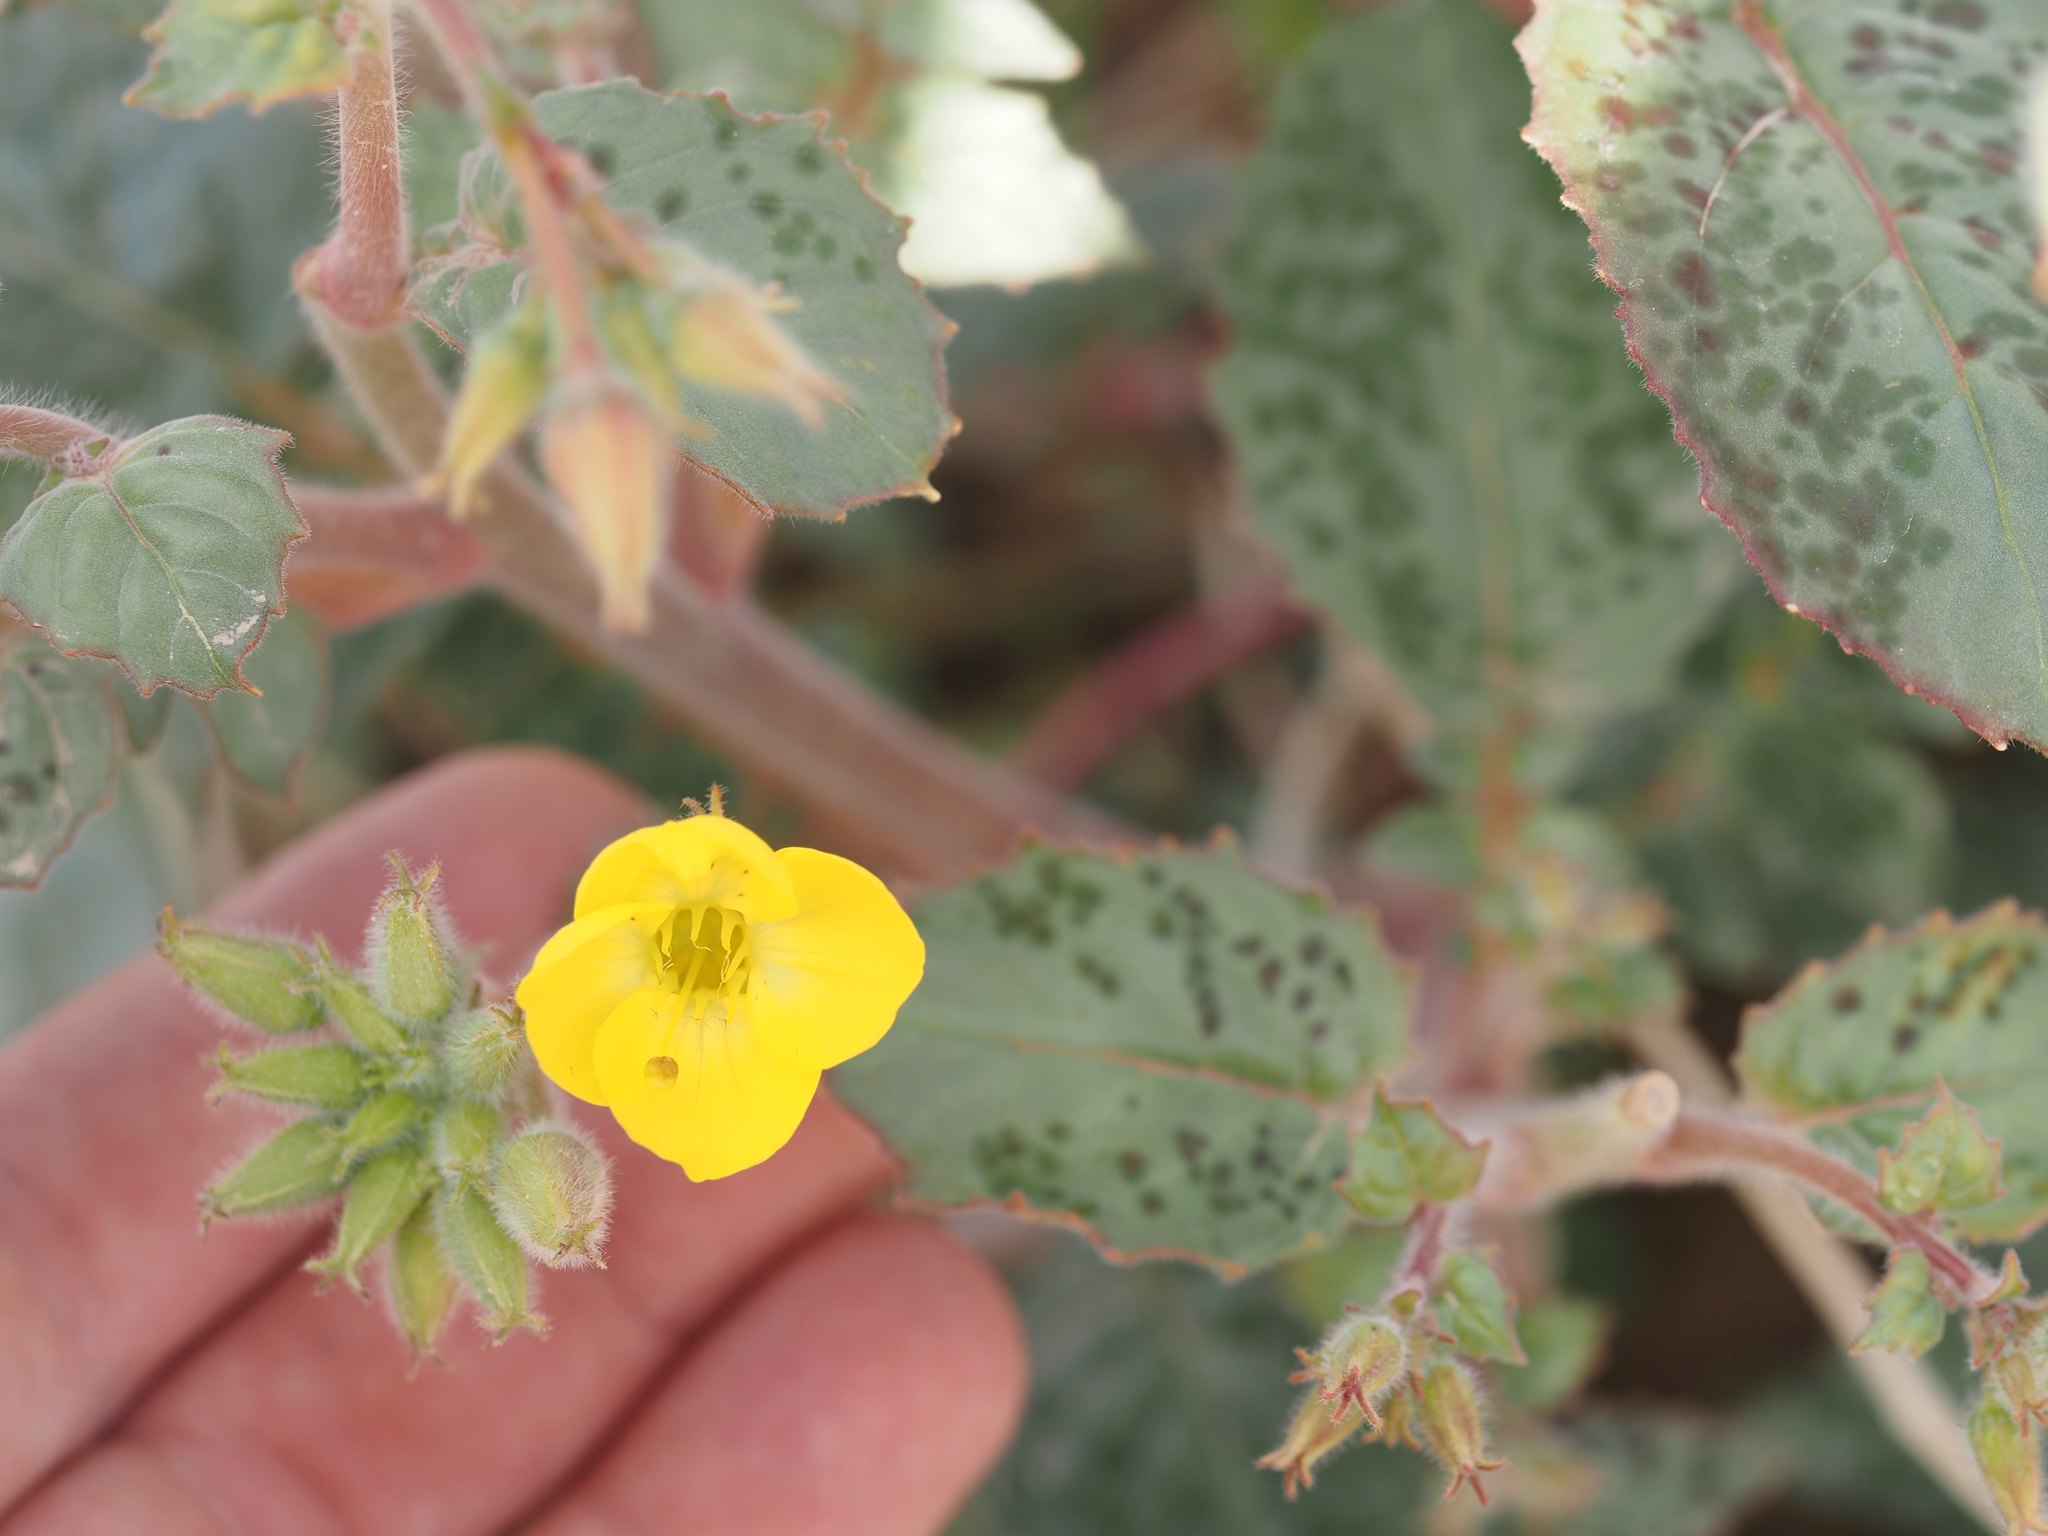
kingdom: Plantae
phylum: Tracheophyta
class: Magnoliopsida
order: Myrtales
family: Onagraceae
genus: Chylismia
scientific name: Chylismia brevipes
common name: Yellow cups
